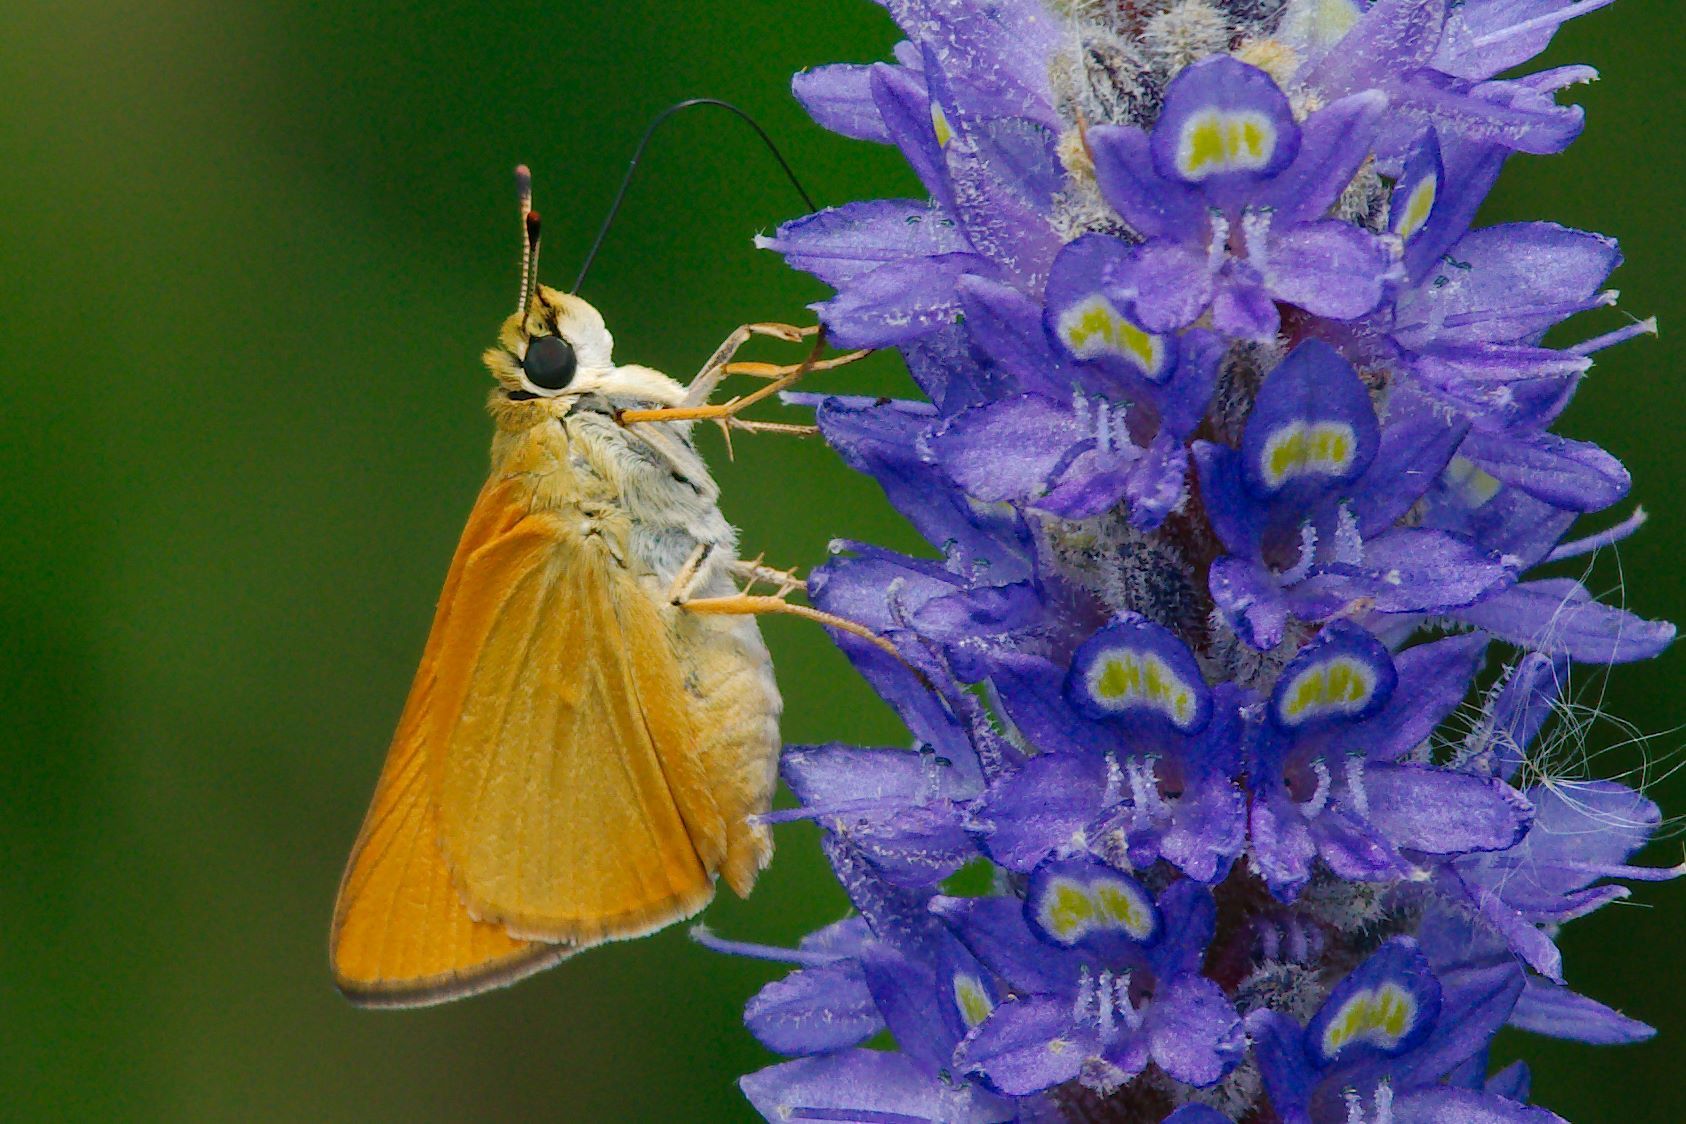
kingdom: Animalia
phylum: Arthropoda
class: Insecta
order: Lepidoptera
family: Hesperiidae
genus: Atrytone
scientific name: Atrytone delaware
